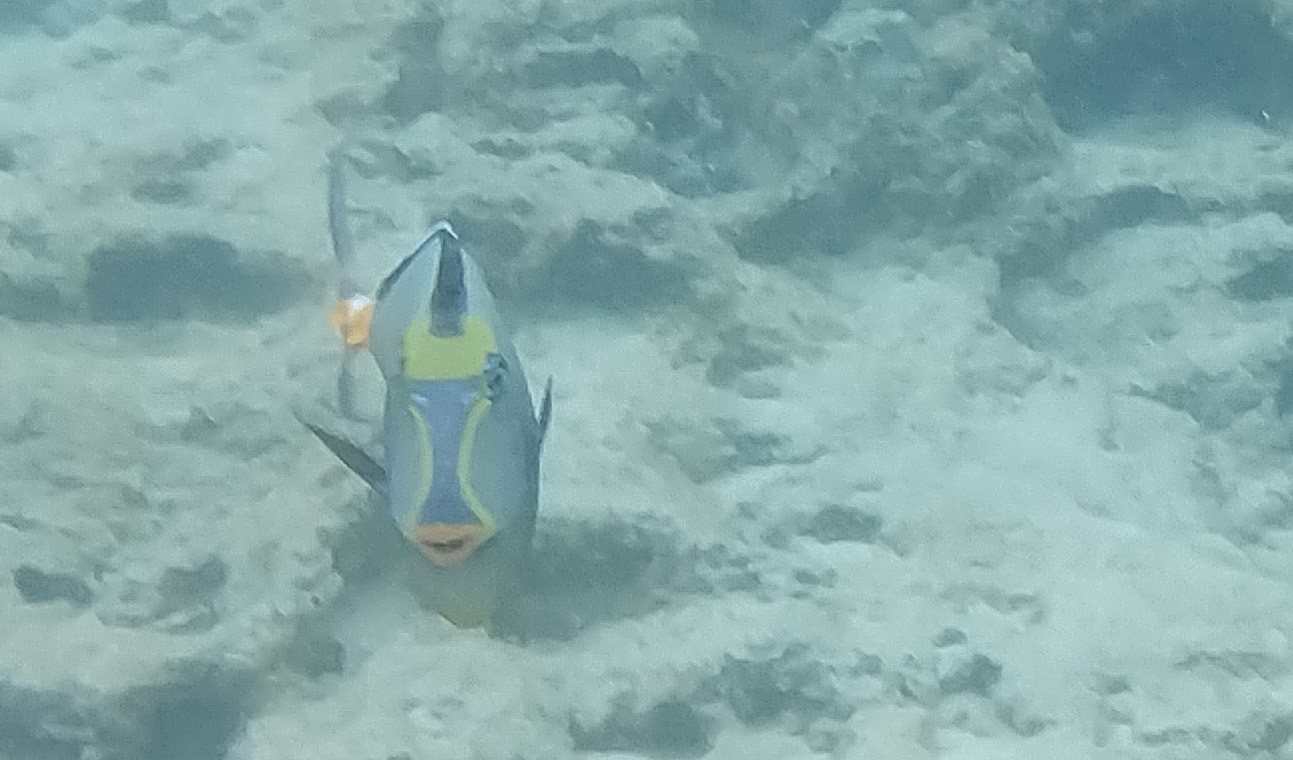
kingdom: Animalia
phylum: Chordata
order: Perciformes
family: Acanthuridae
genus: Naso
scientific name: Naso lituratus
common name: Orangespine unicornfish
